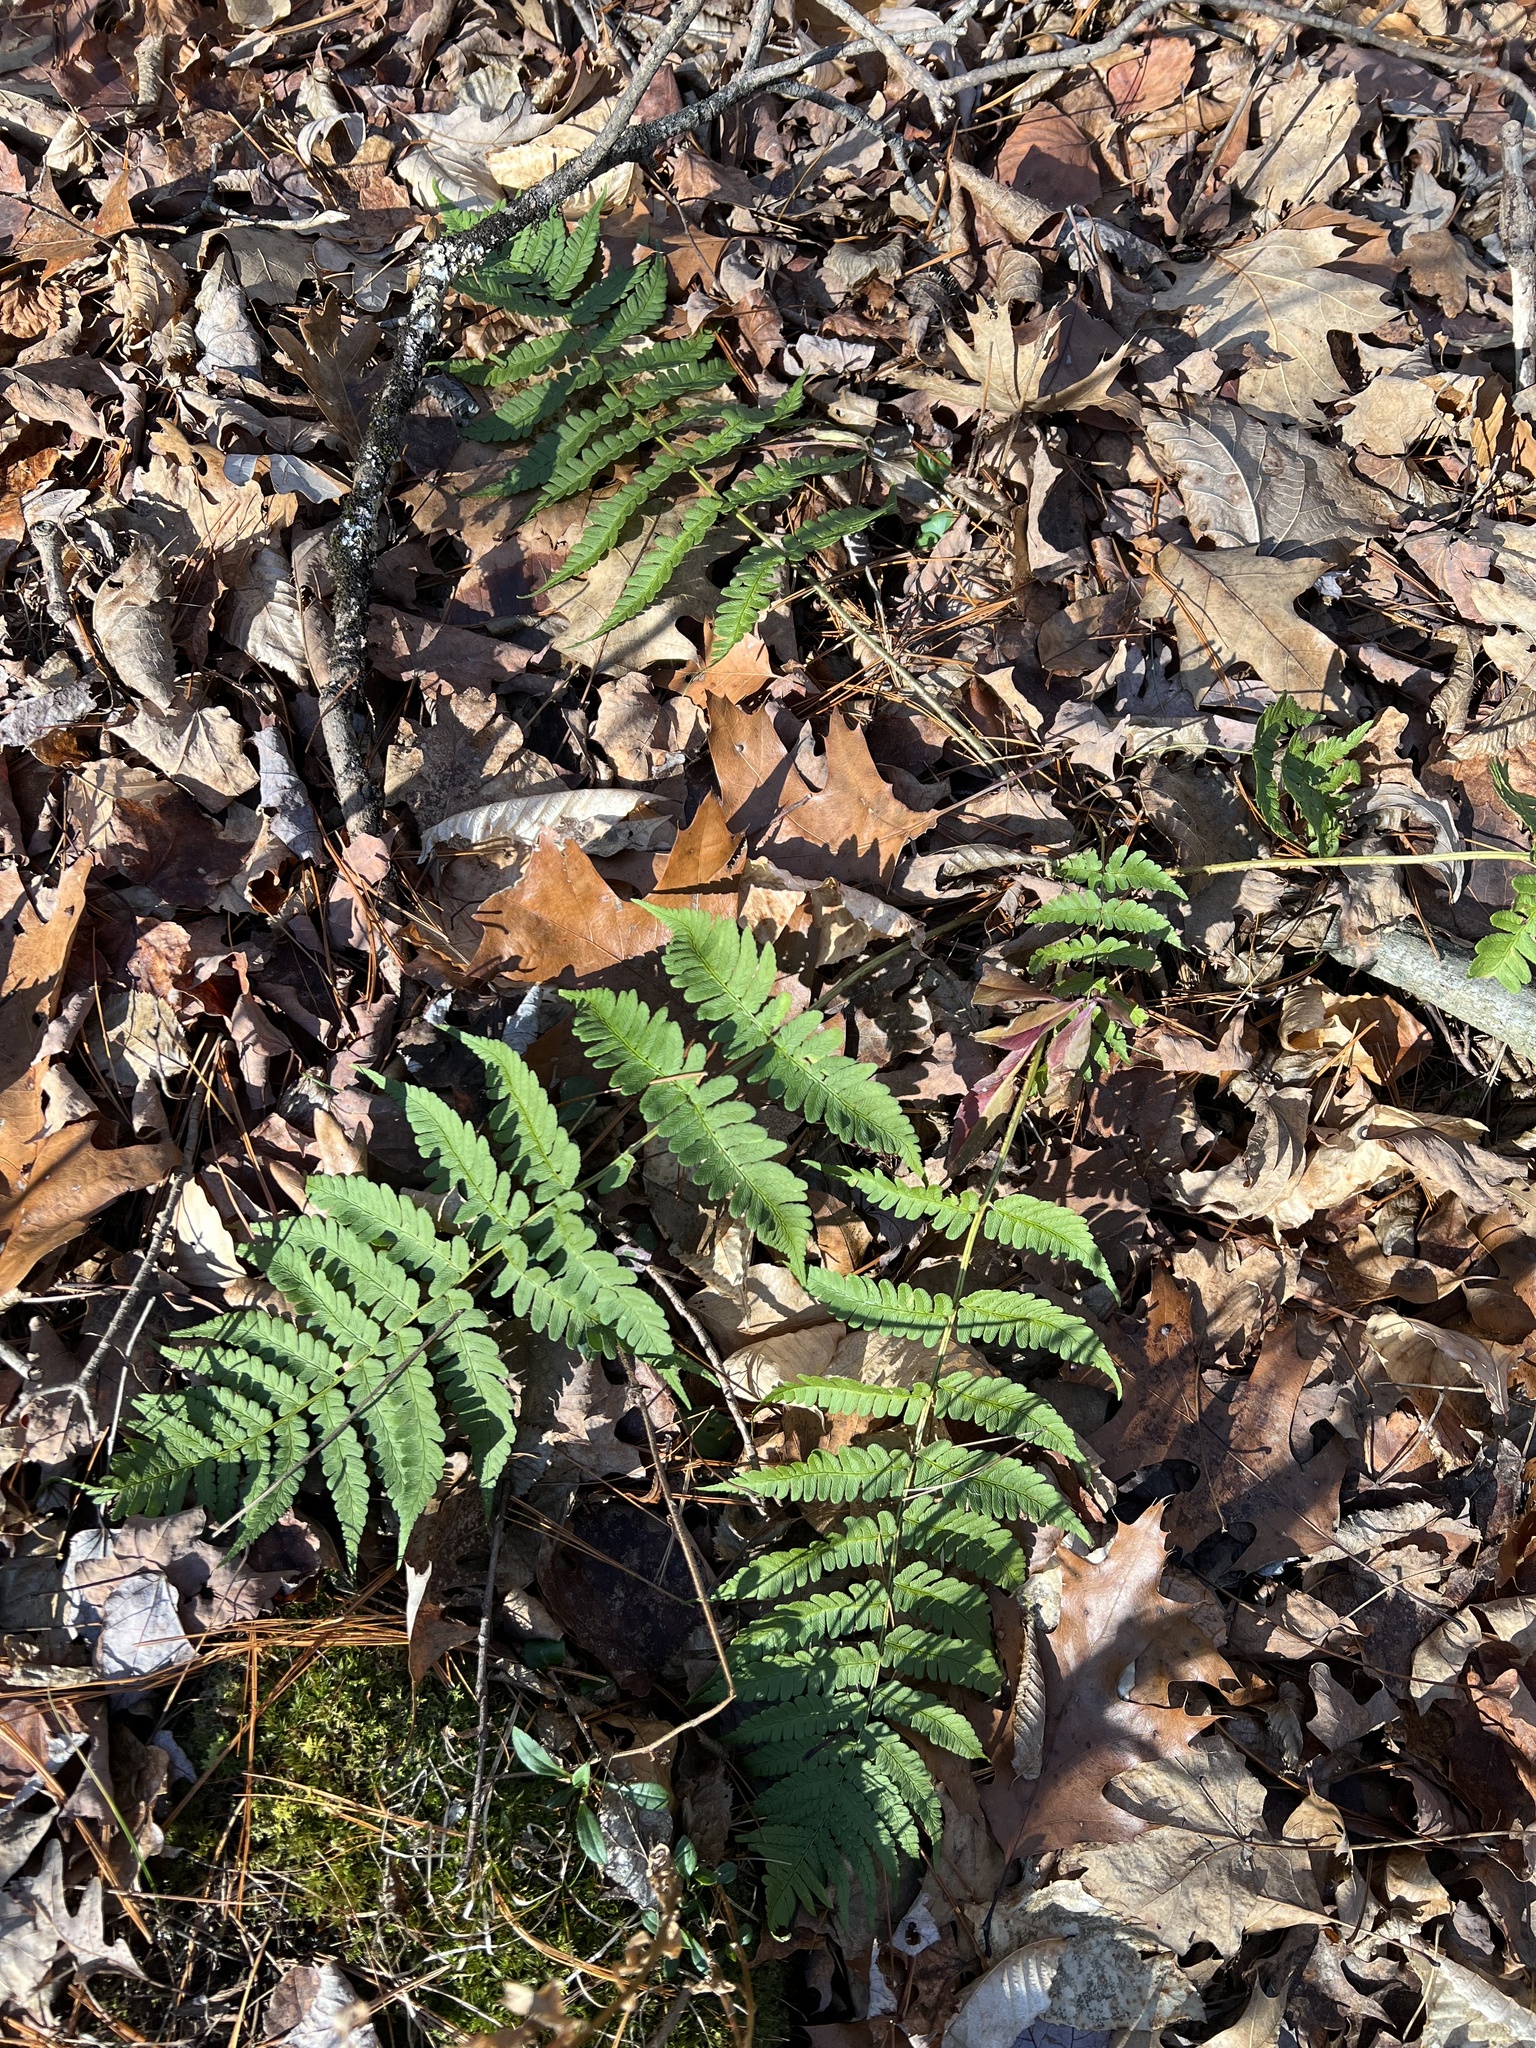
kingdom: Plantae
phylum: Tracheophyta
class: Polypodiopsida
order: Polypodiales
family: Dryopteridaceae
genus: Dryopteris
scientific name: Dryopteris marginalis
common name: Marginal wood fern
